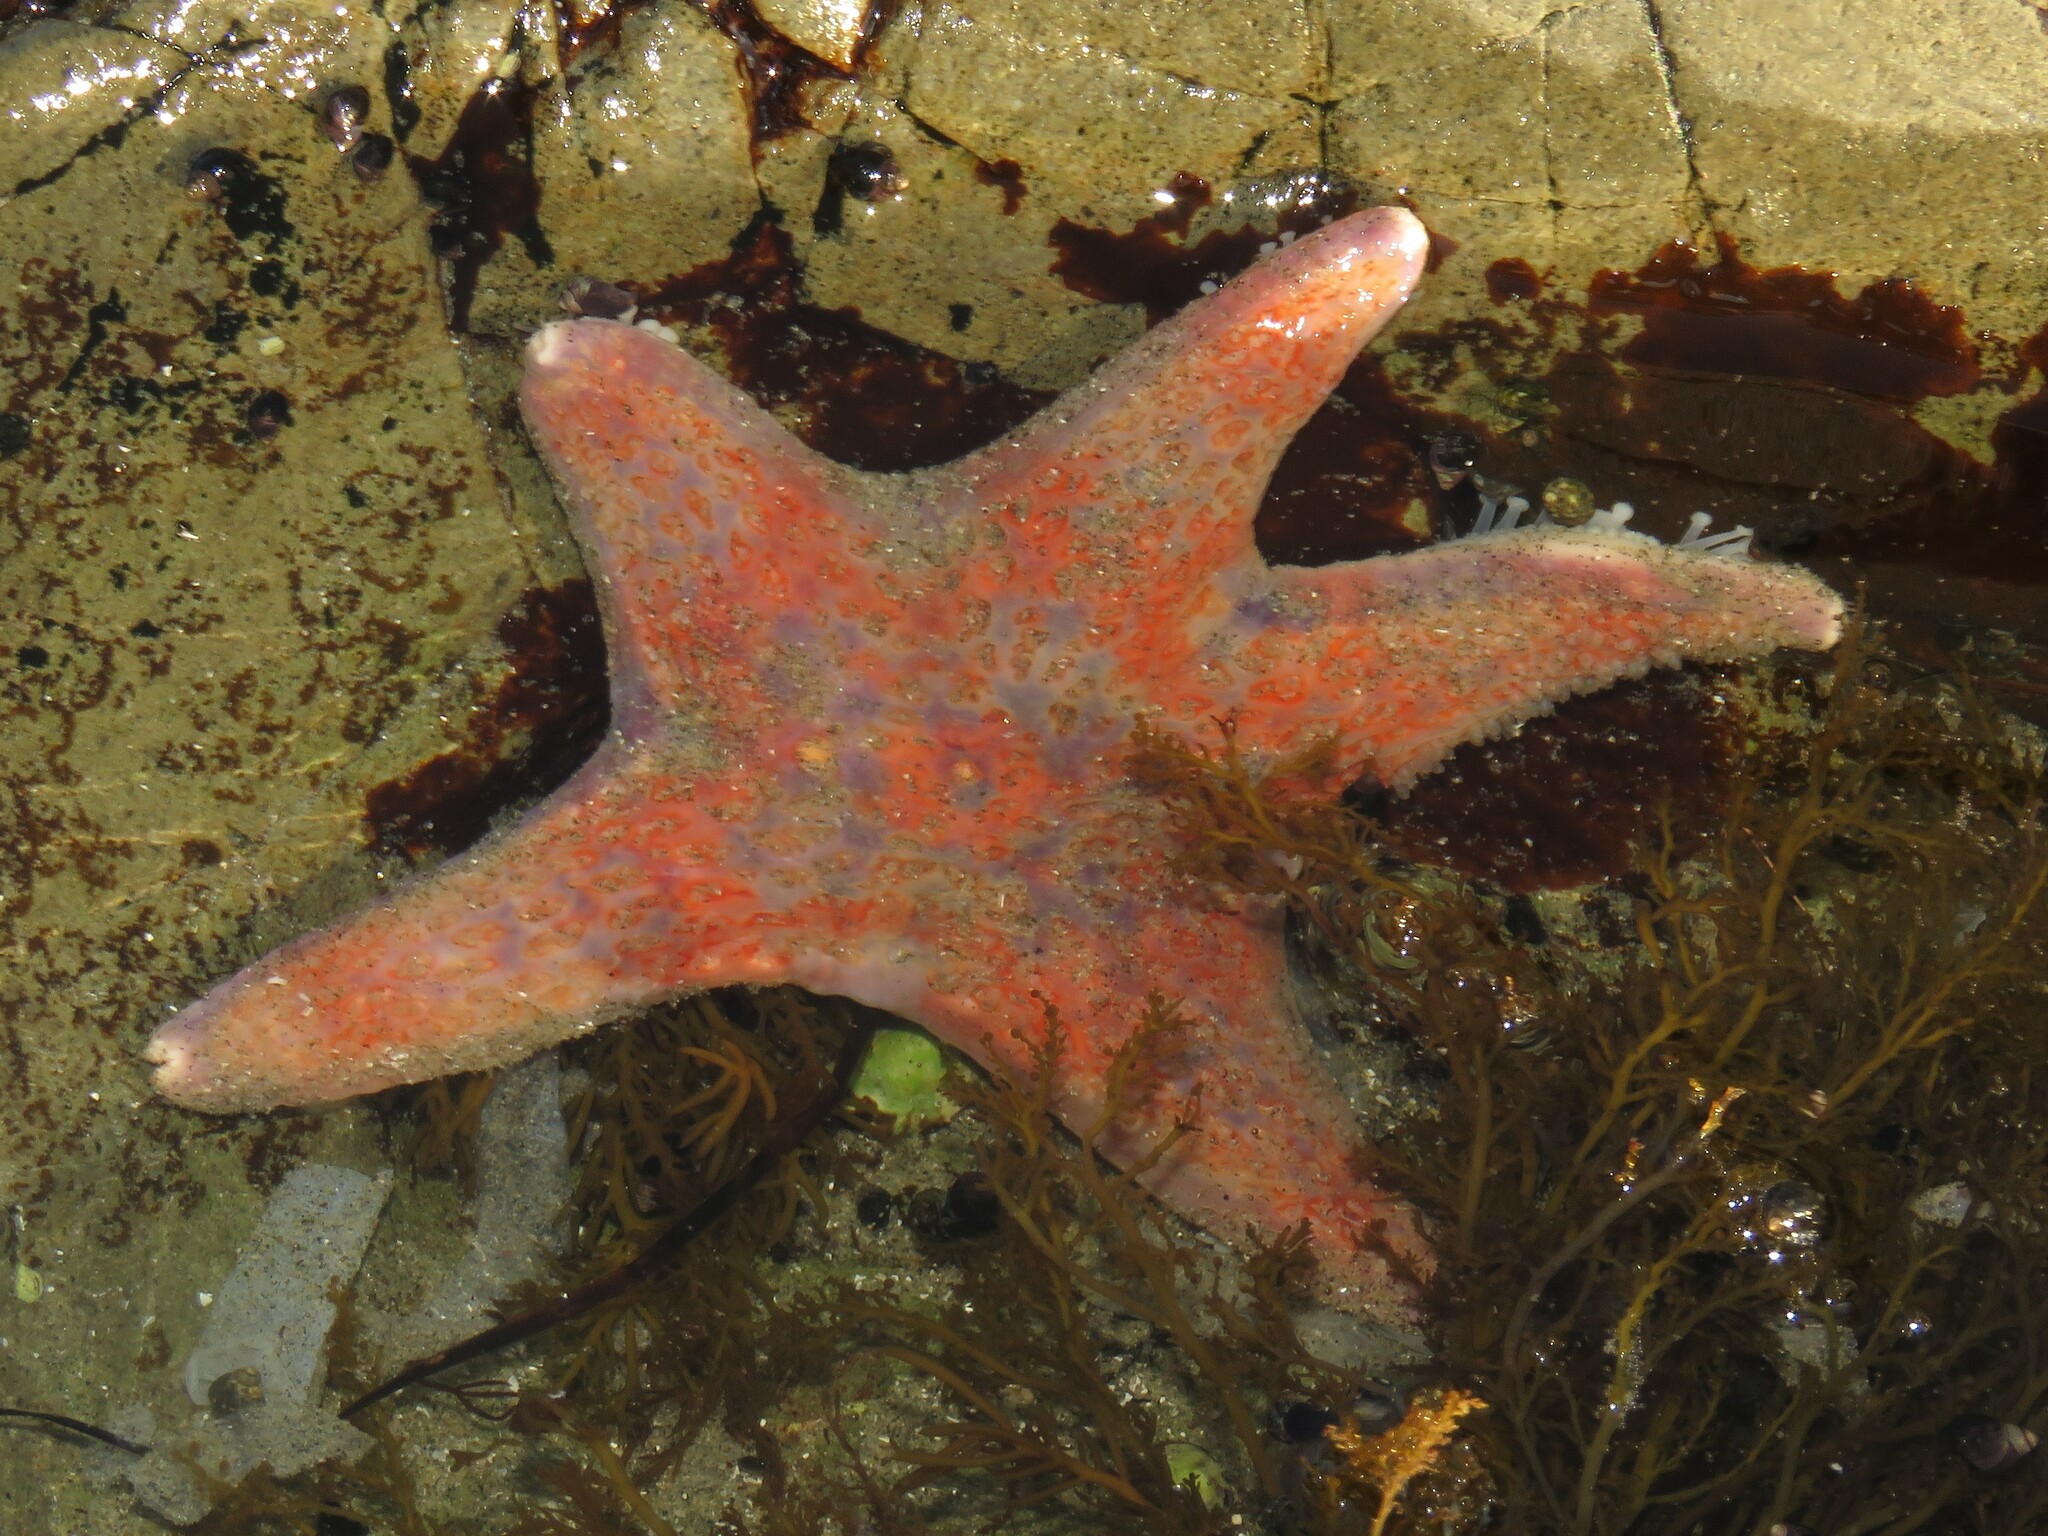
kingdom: Animalia
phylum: Echinodermata
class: Asteroidea
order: Valvatida
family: Asteropseidae
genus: Dermasterias
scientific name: Dermasterias imbricata
